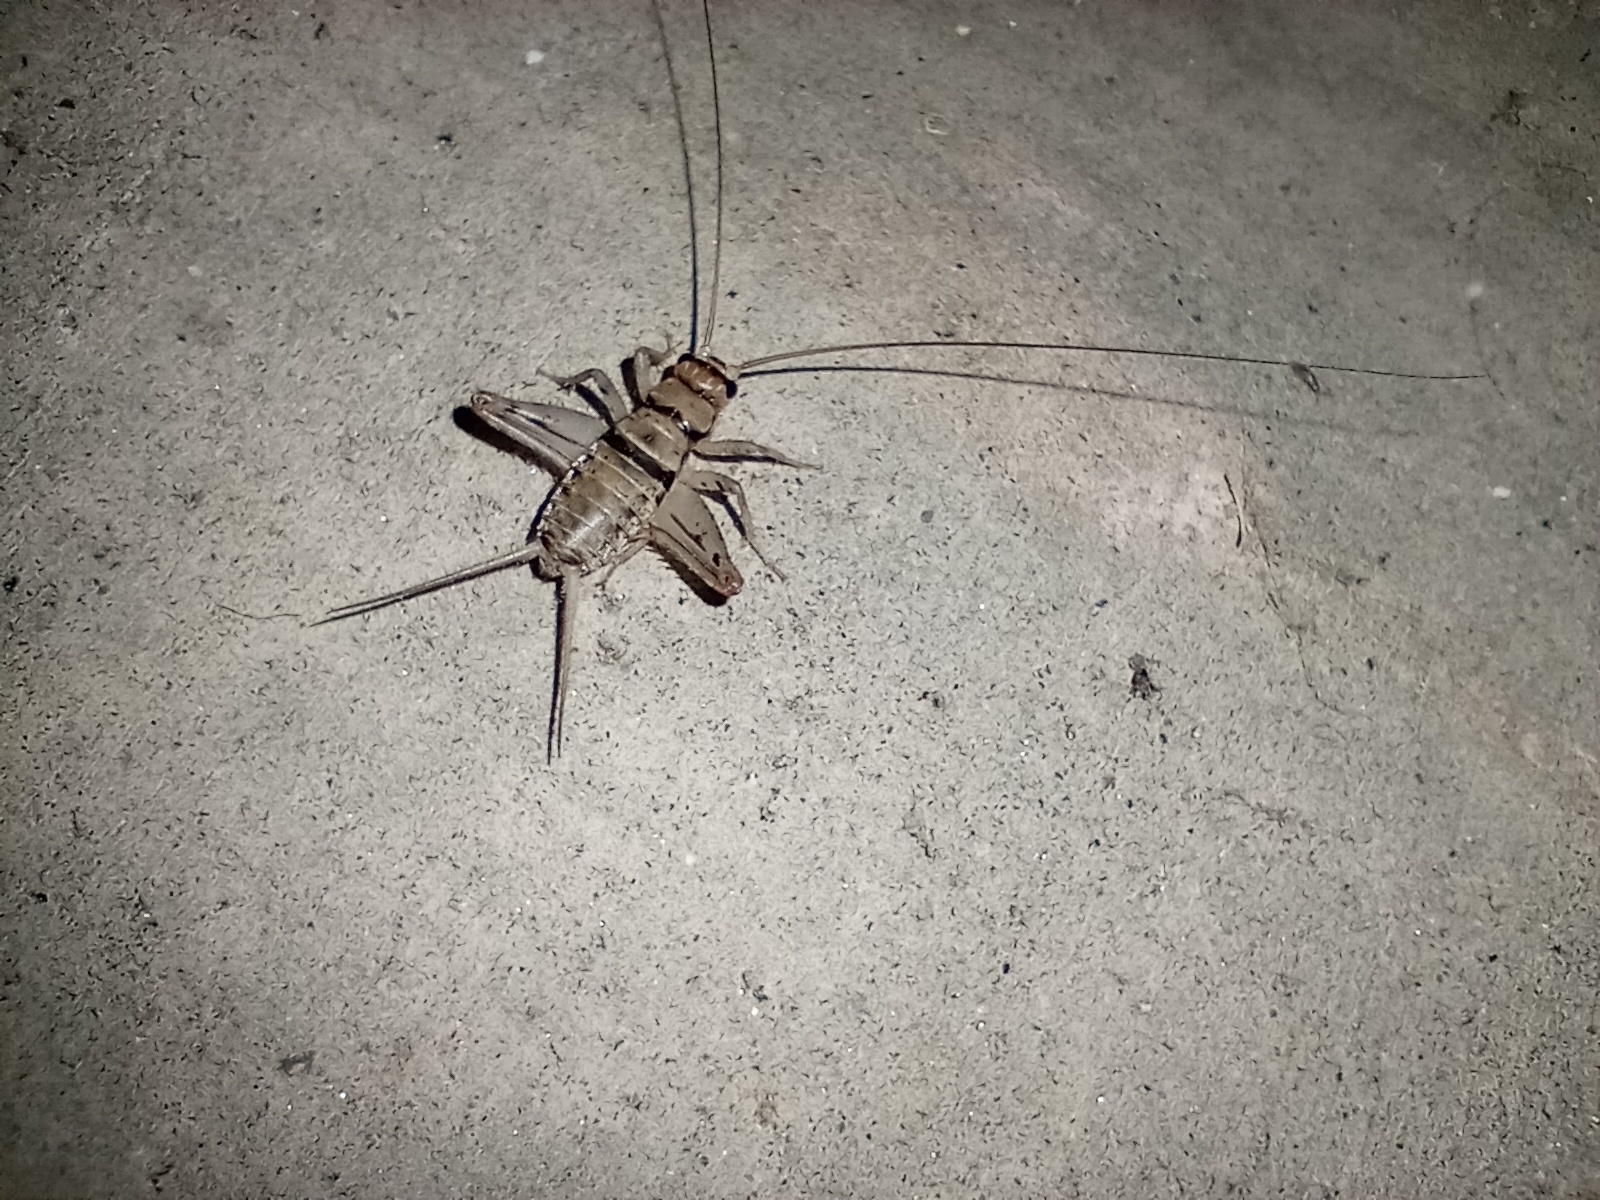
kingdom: Animalia
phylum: Arthropoda
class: Insecta
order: Orthoptera
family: Gryllidae
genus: Gryllodes
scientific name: Gryllodes sigillatus
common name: Tropical house cricket
